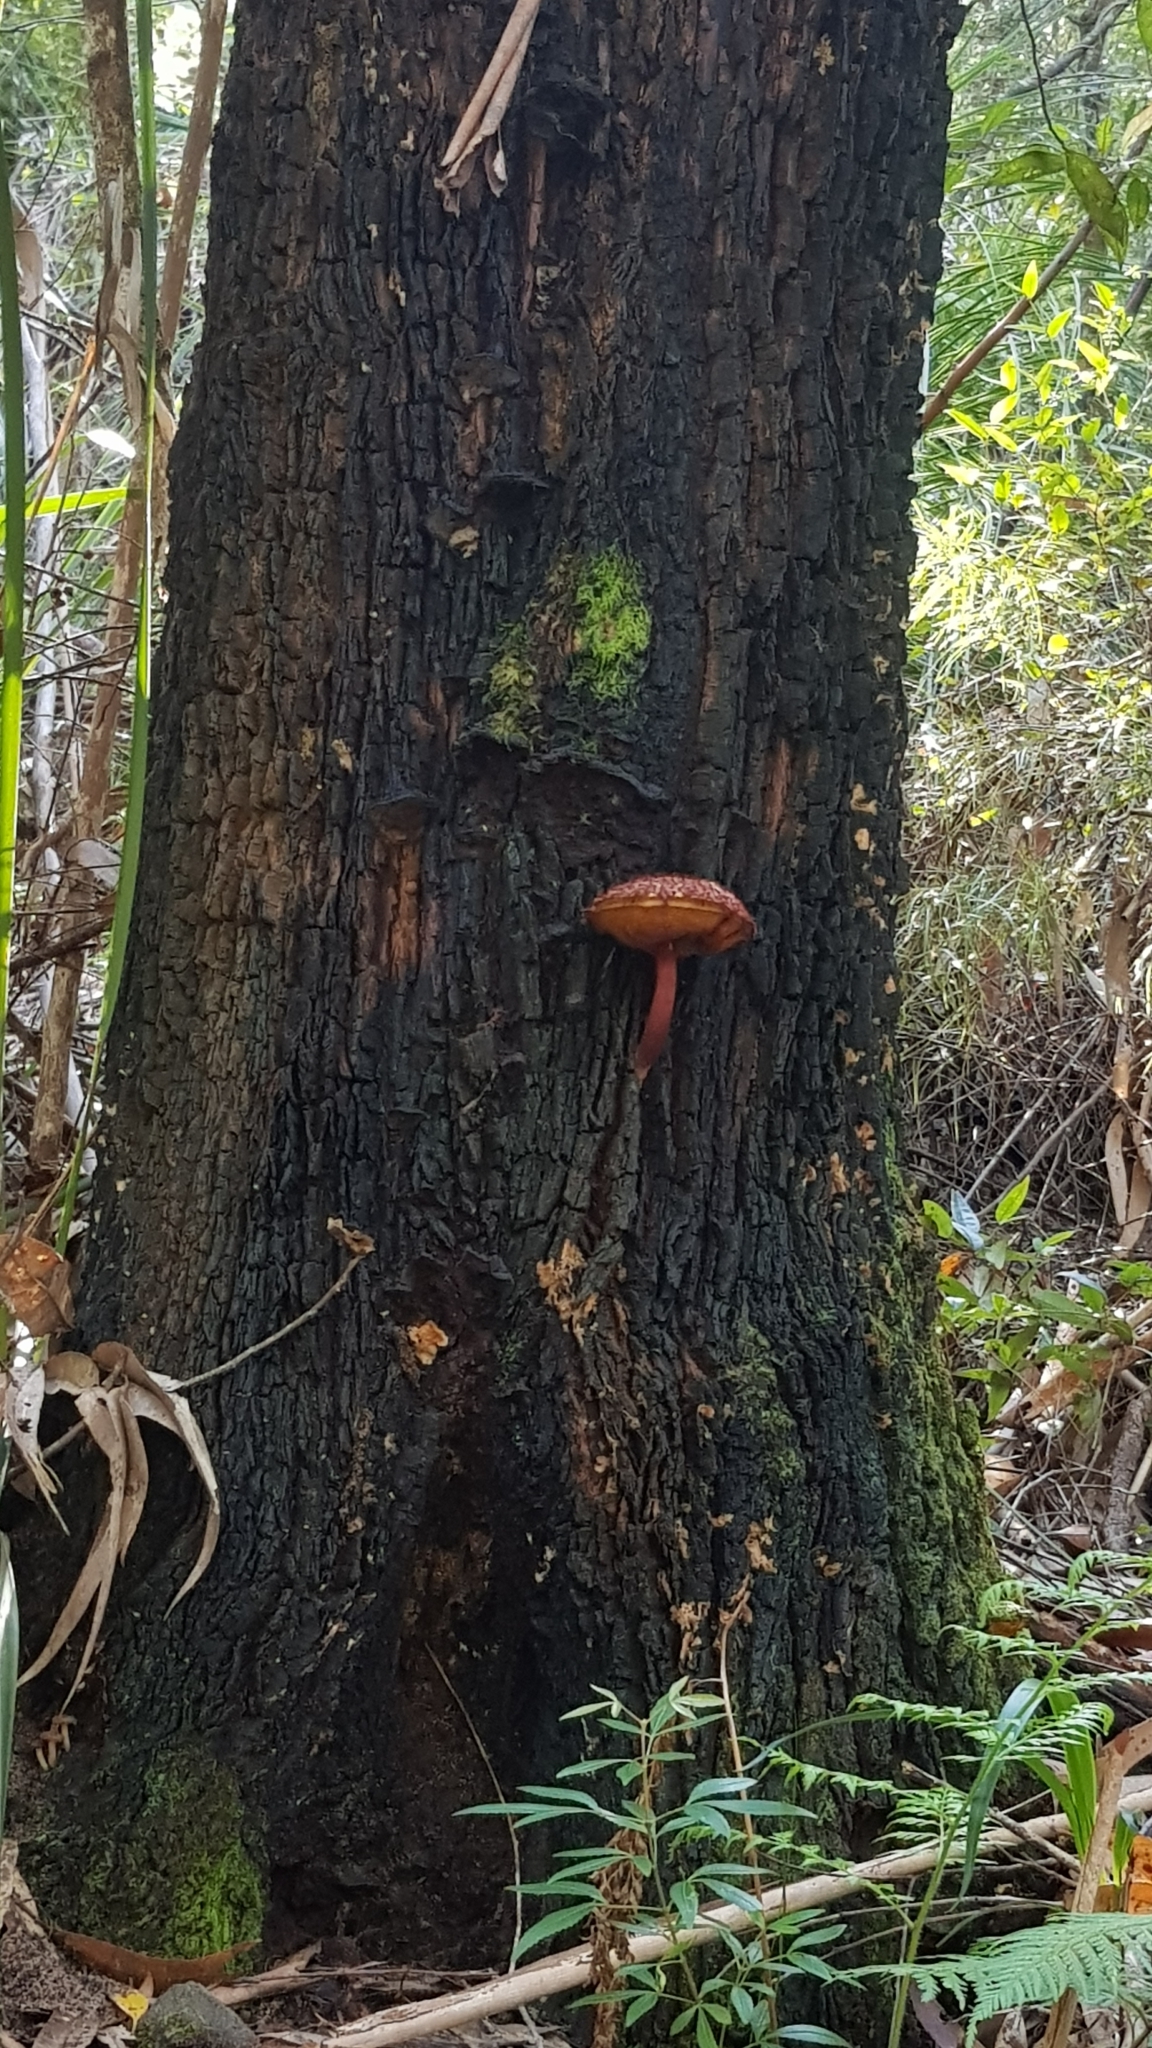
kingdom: Fungi
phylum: Basidiomycota
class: Agaricomycetes
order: Boletales
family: Boletaceae
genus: Boletellus
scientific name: Boletellus emodensis
